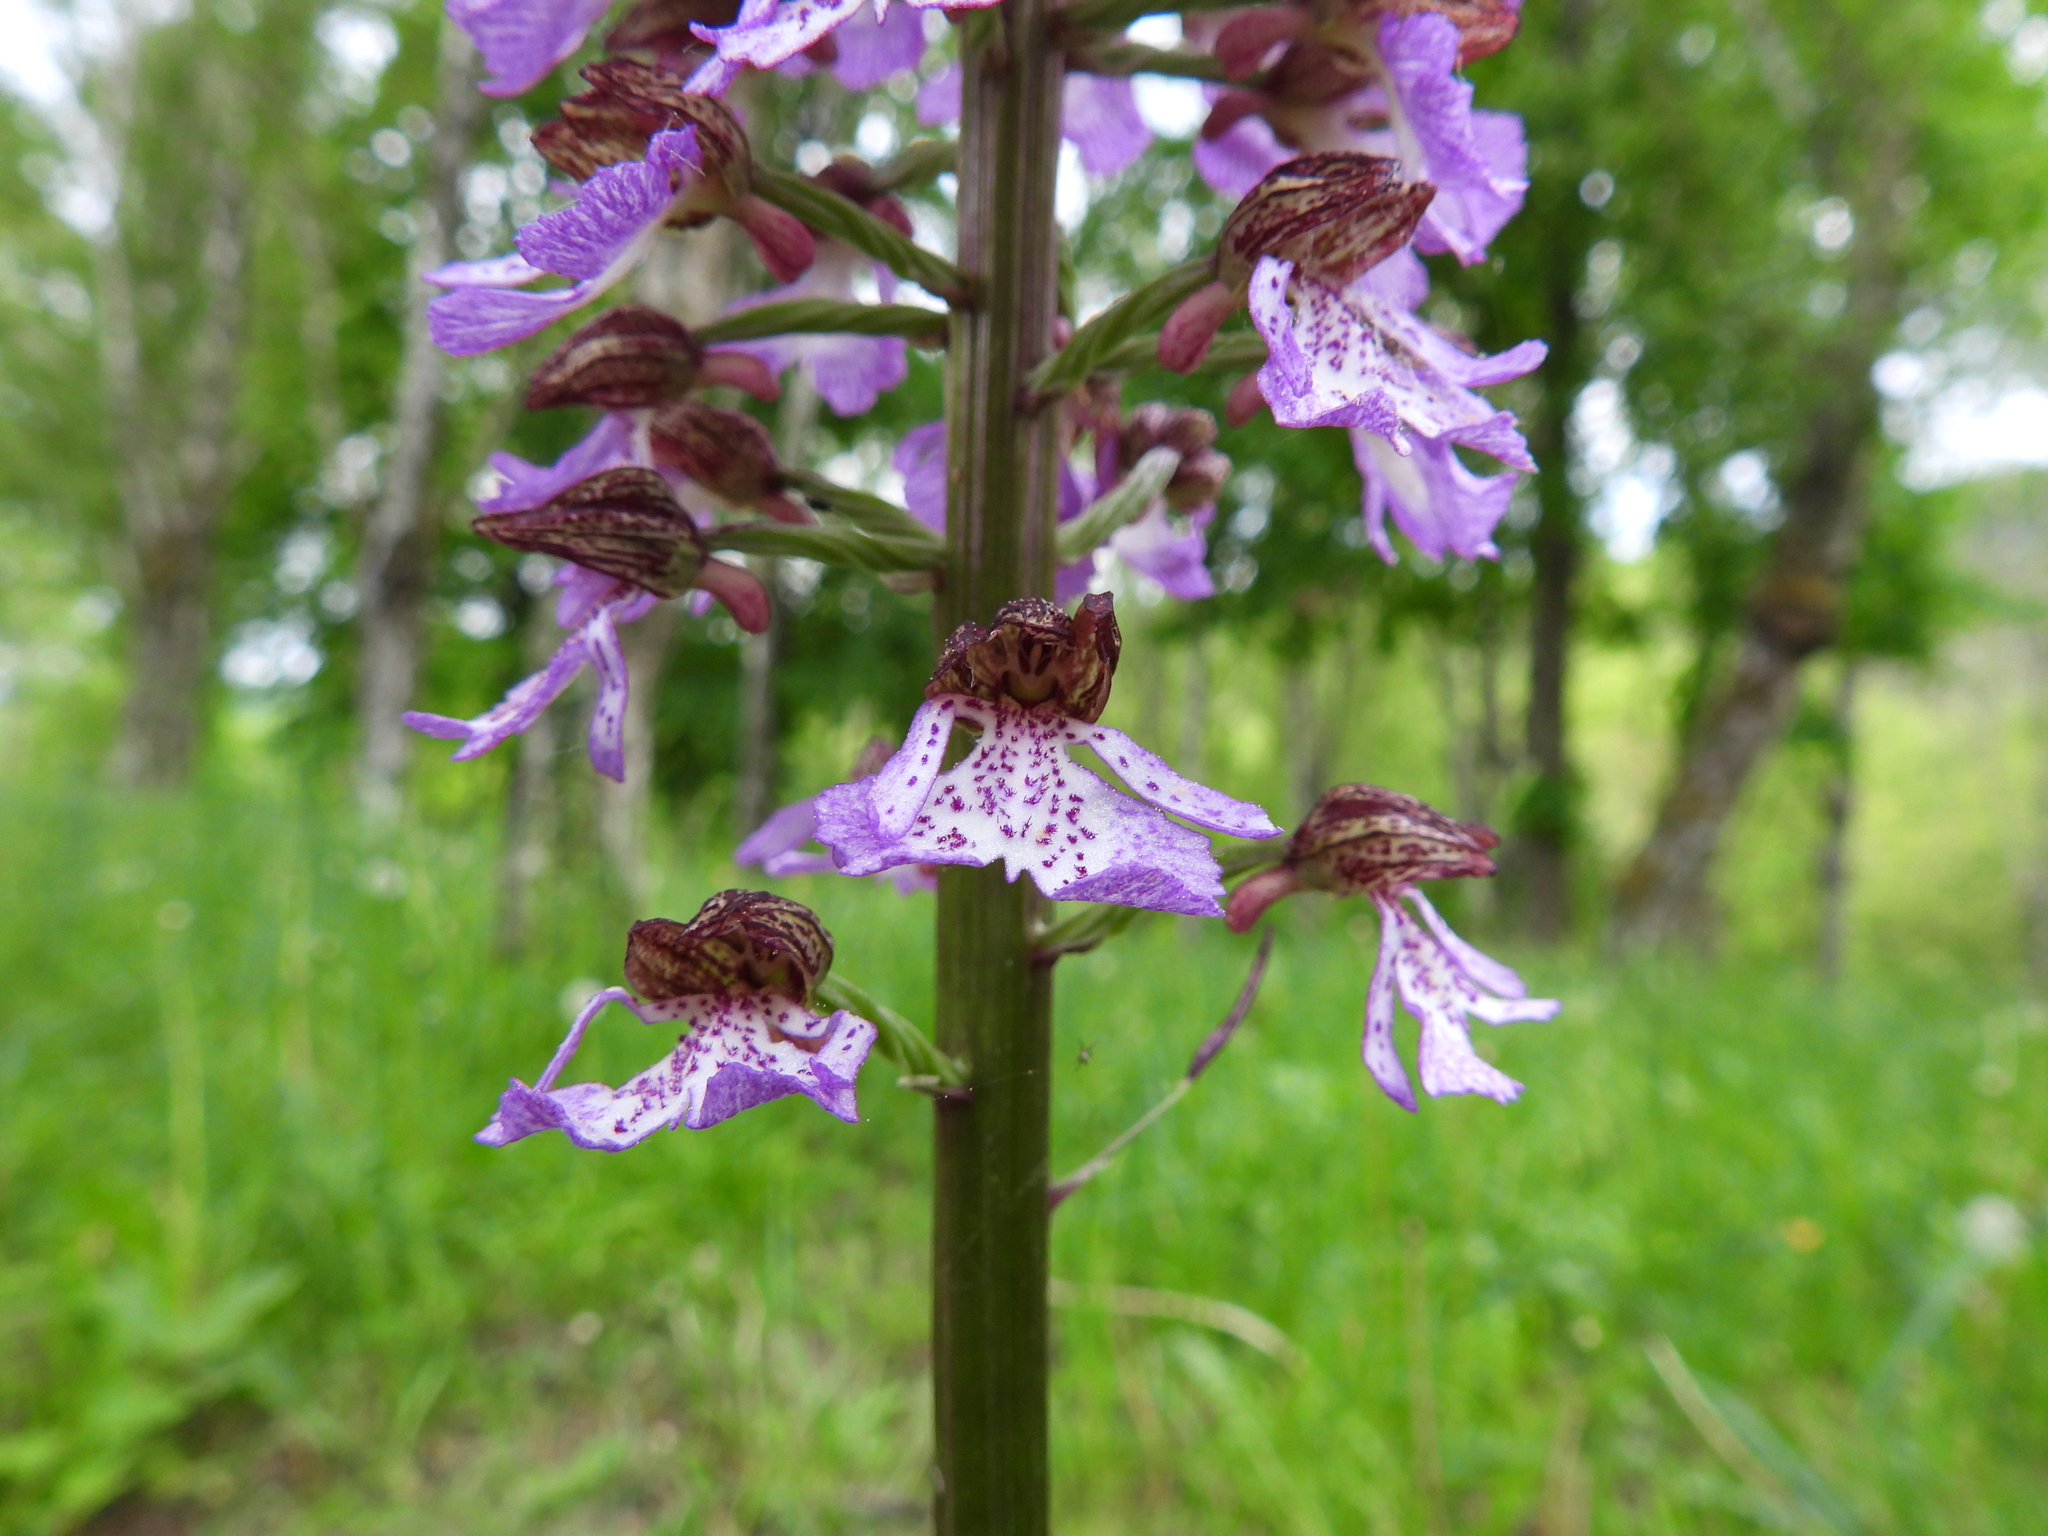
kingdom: Plantae
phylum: Tracheophyta
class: Liliopsida
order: Asparagales
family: Orchidaceae
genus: Orchis
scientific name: Orchis purpurea
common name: Lady orchid
